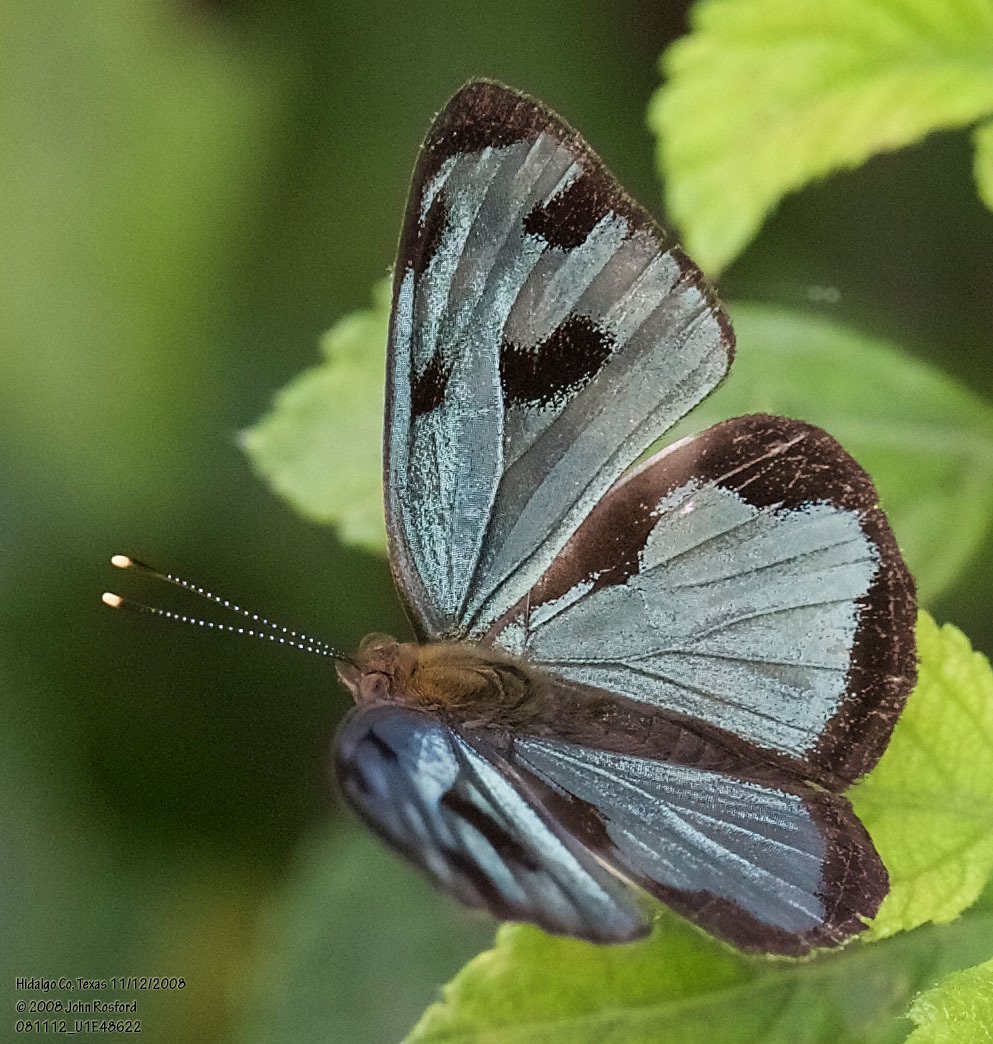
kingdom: Animalia
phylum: Arthropoda
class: Insecta
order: Lepidoptera
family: Nymphalidae
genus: Dynamine
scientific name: Dynamine mylitta
